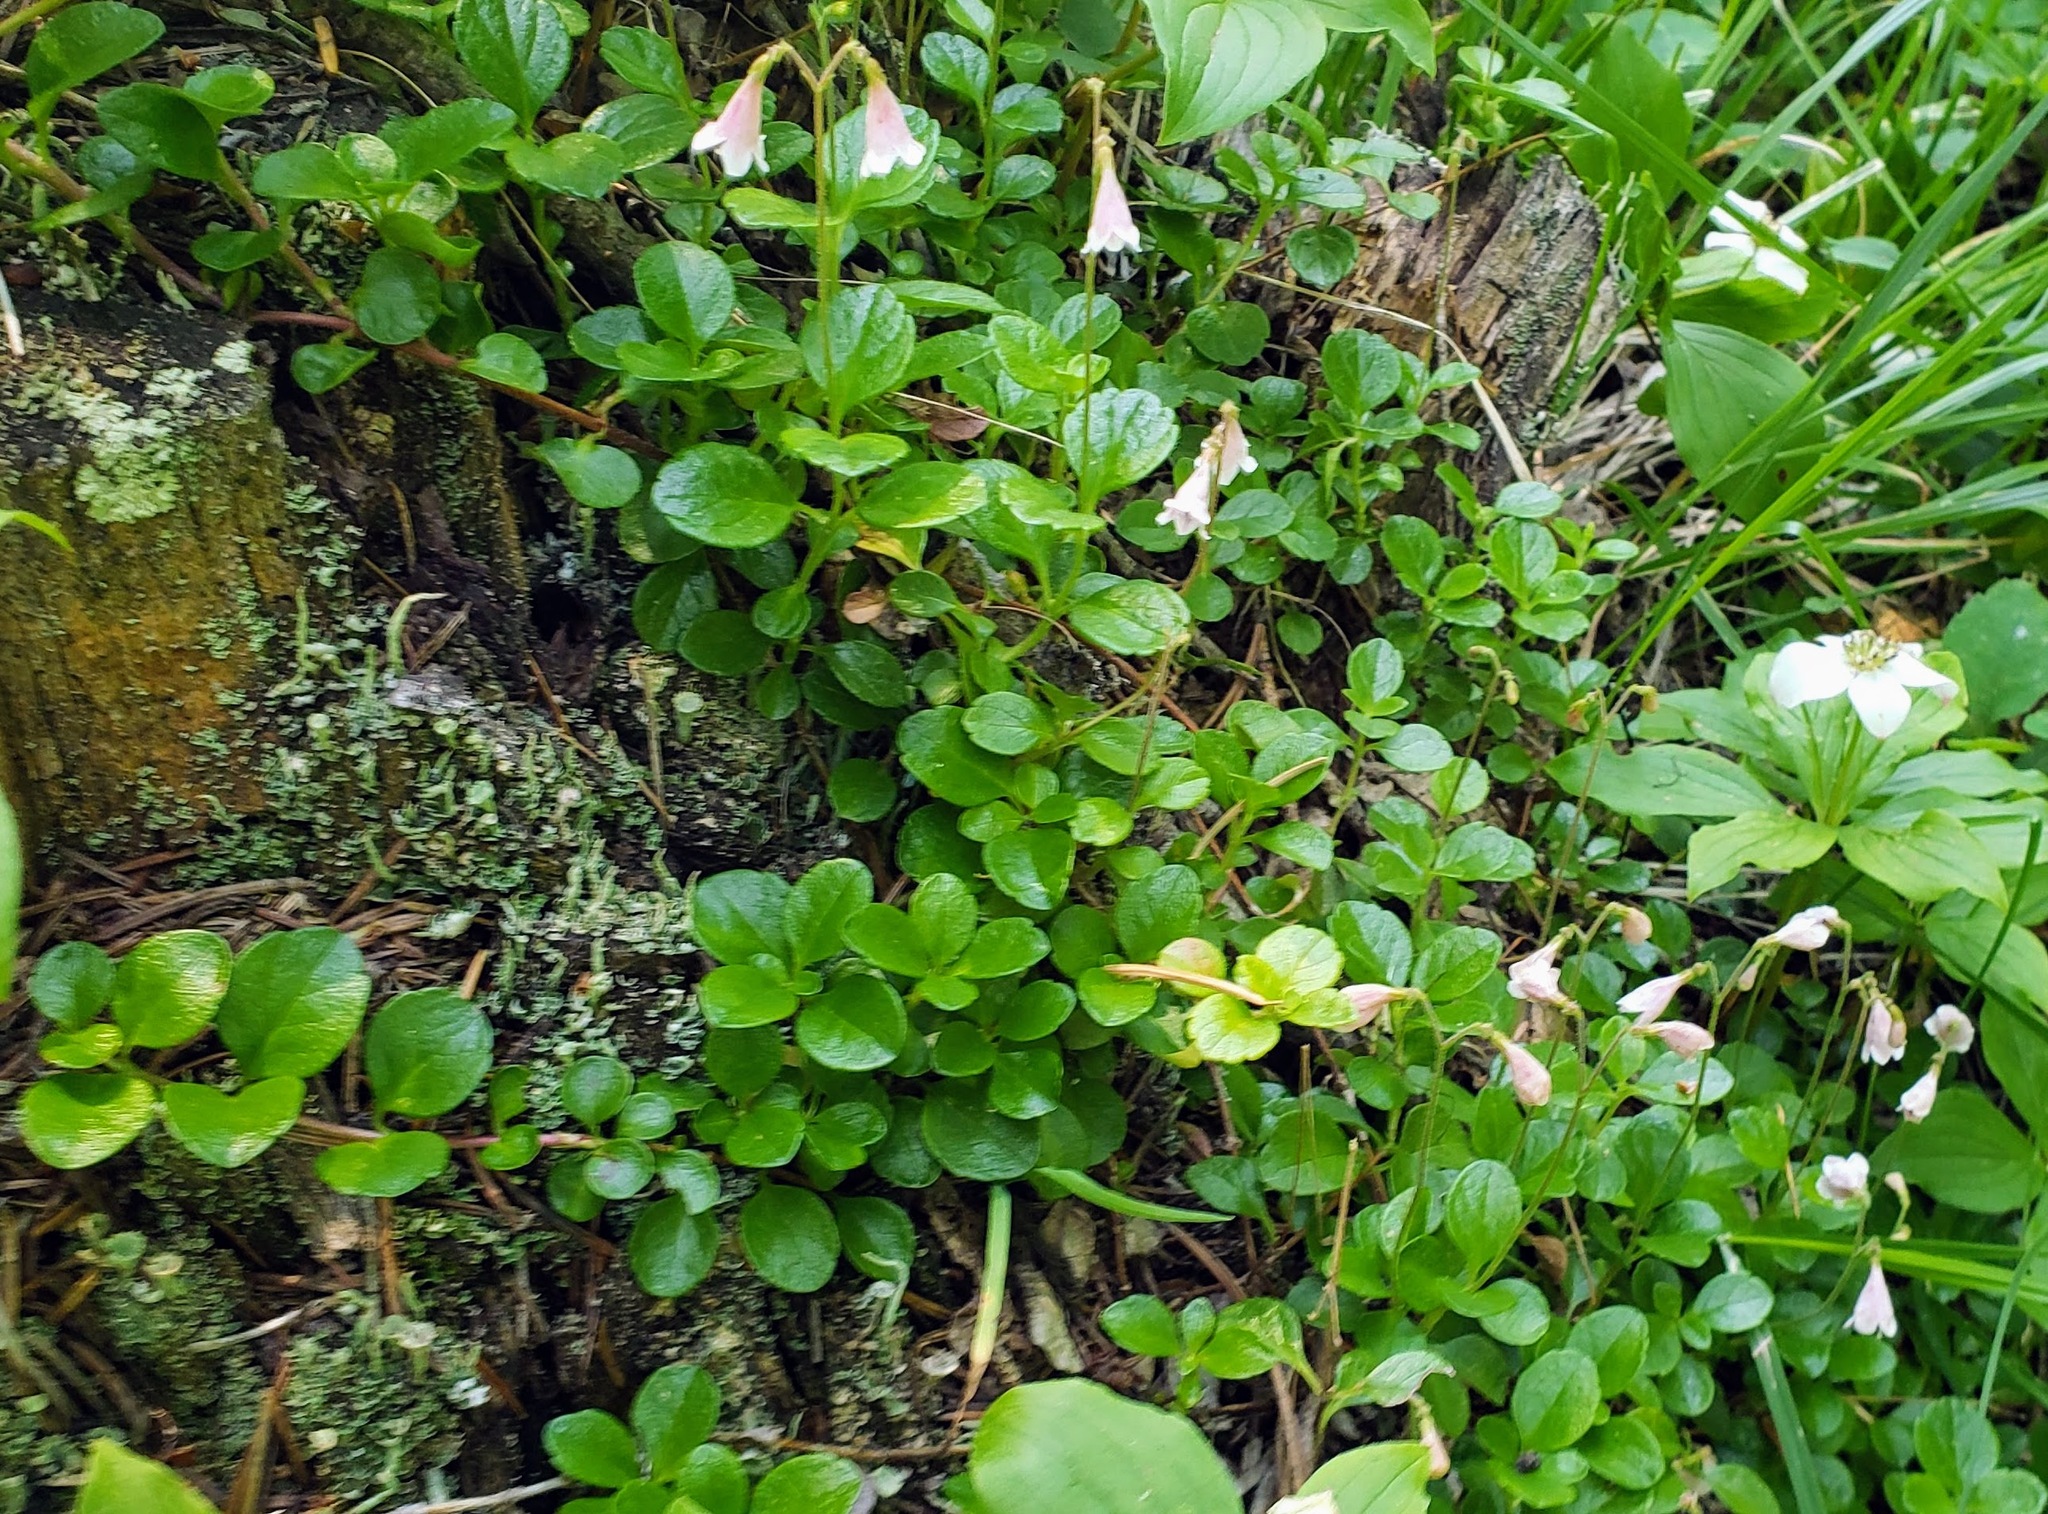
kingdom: Plantae
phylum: Tracheophyta
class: Magnoliopsida
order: Dipsacales
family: Caprifoliaceae
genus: Linnaea
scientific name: Linnaea borealis
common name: Twinflower
